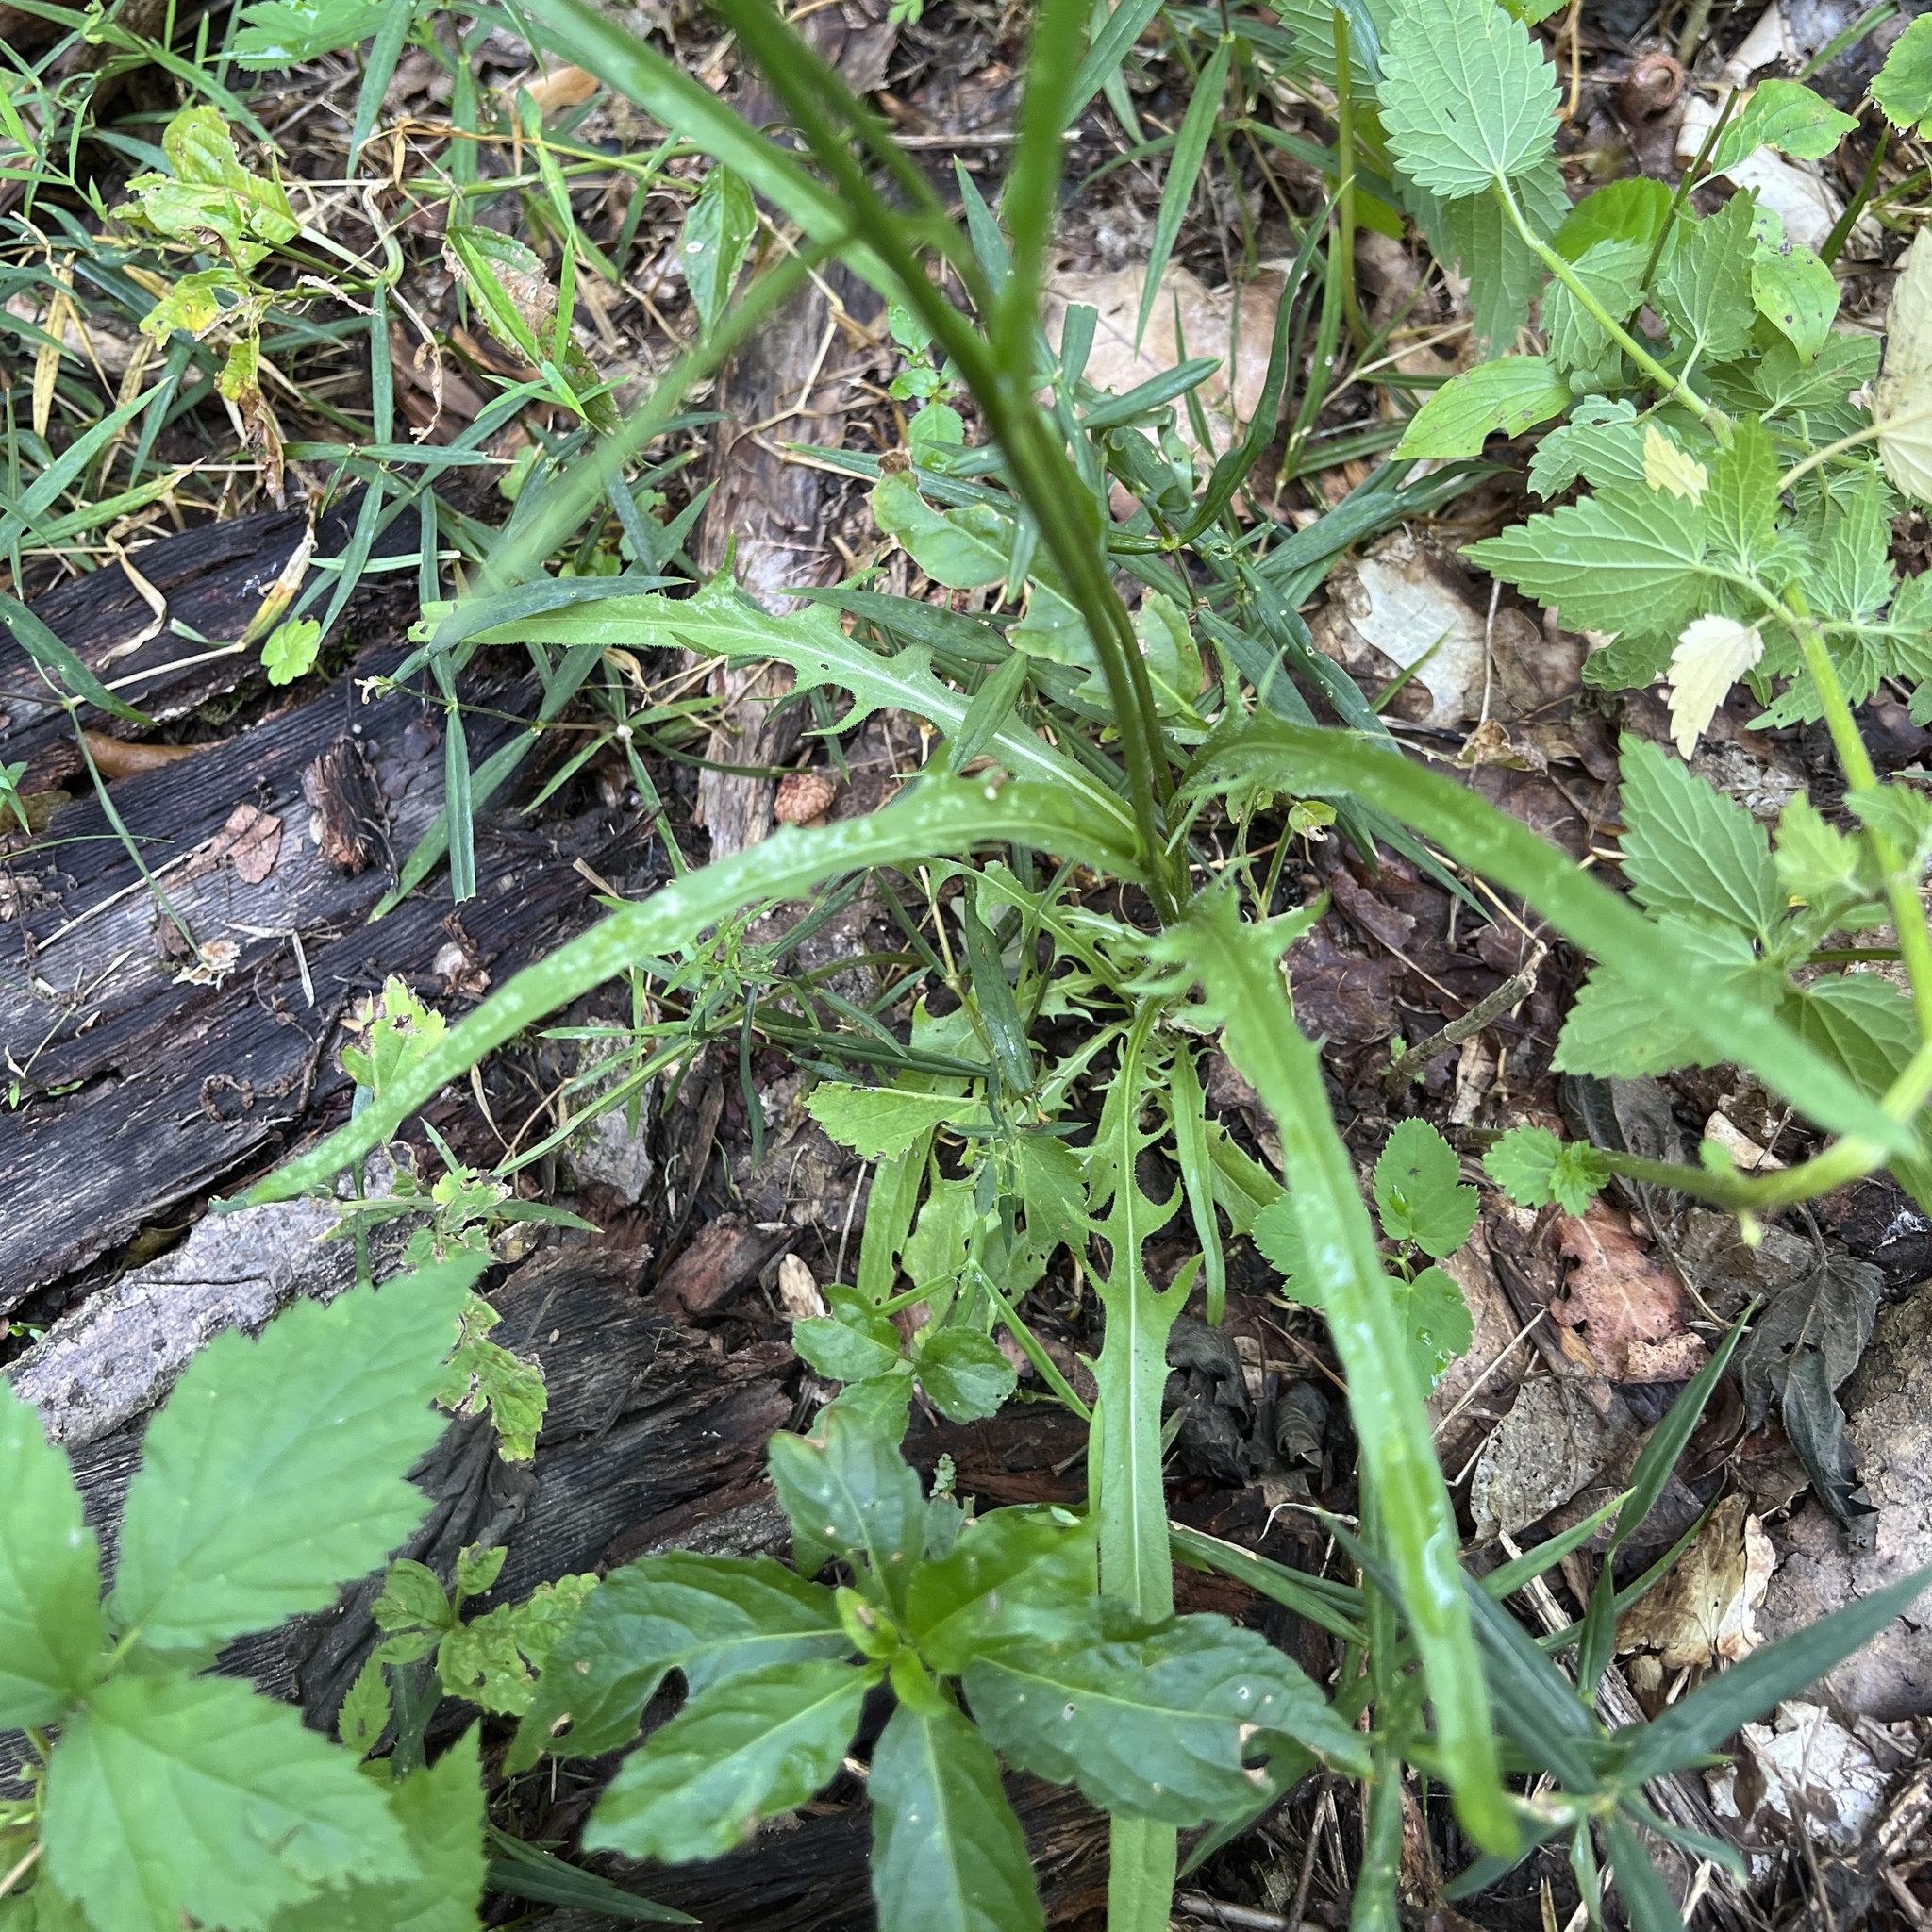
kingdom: Plantae
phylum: Tracheophyta
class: Magnoliopsida
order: Asterales
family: Asteraceae
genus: Crepis
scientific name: Crepis biennis
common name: Rough hawk's-beard
